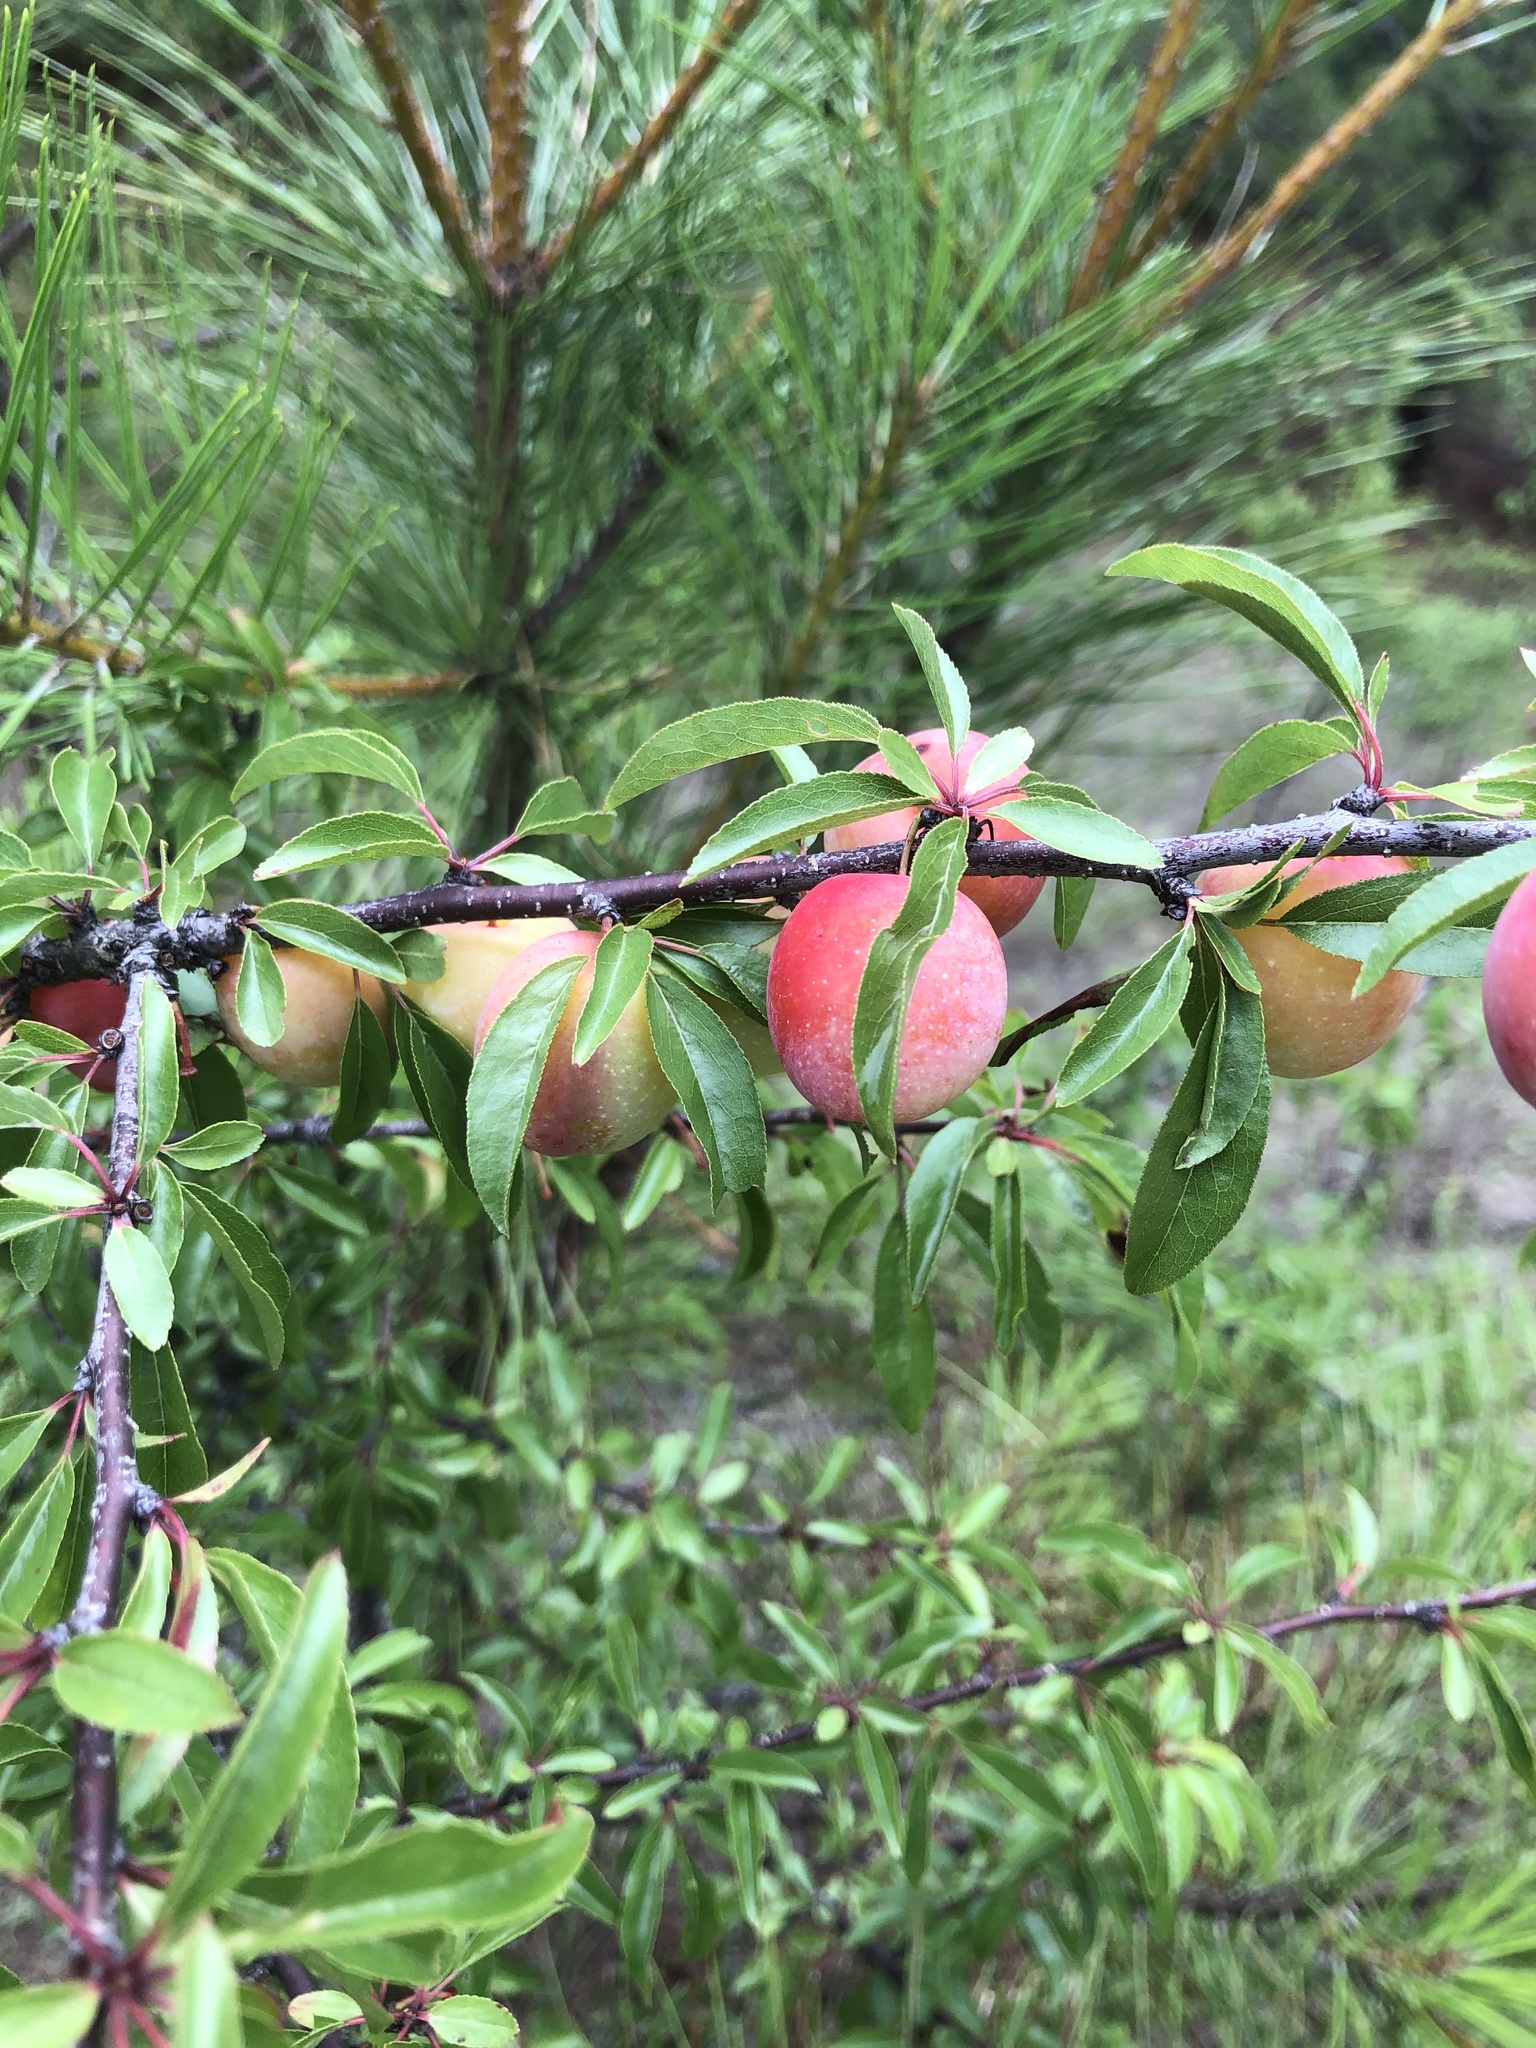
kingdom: Plantae
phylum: Tracheophyta
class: Magnoliopsida
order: Rosales
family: Rosaceae
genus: Prunus
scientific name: Prunus angustifolia
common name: Cherokee plum
